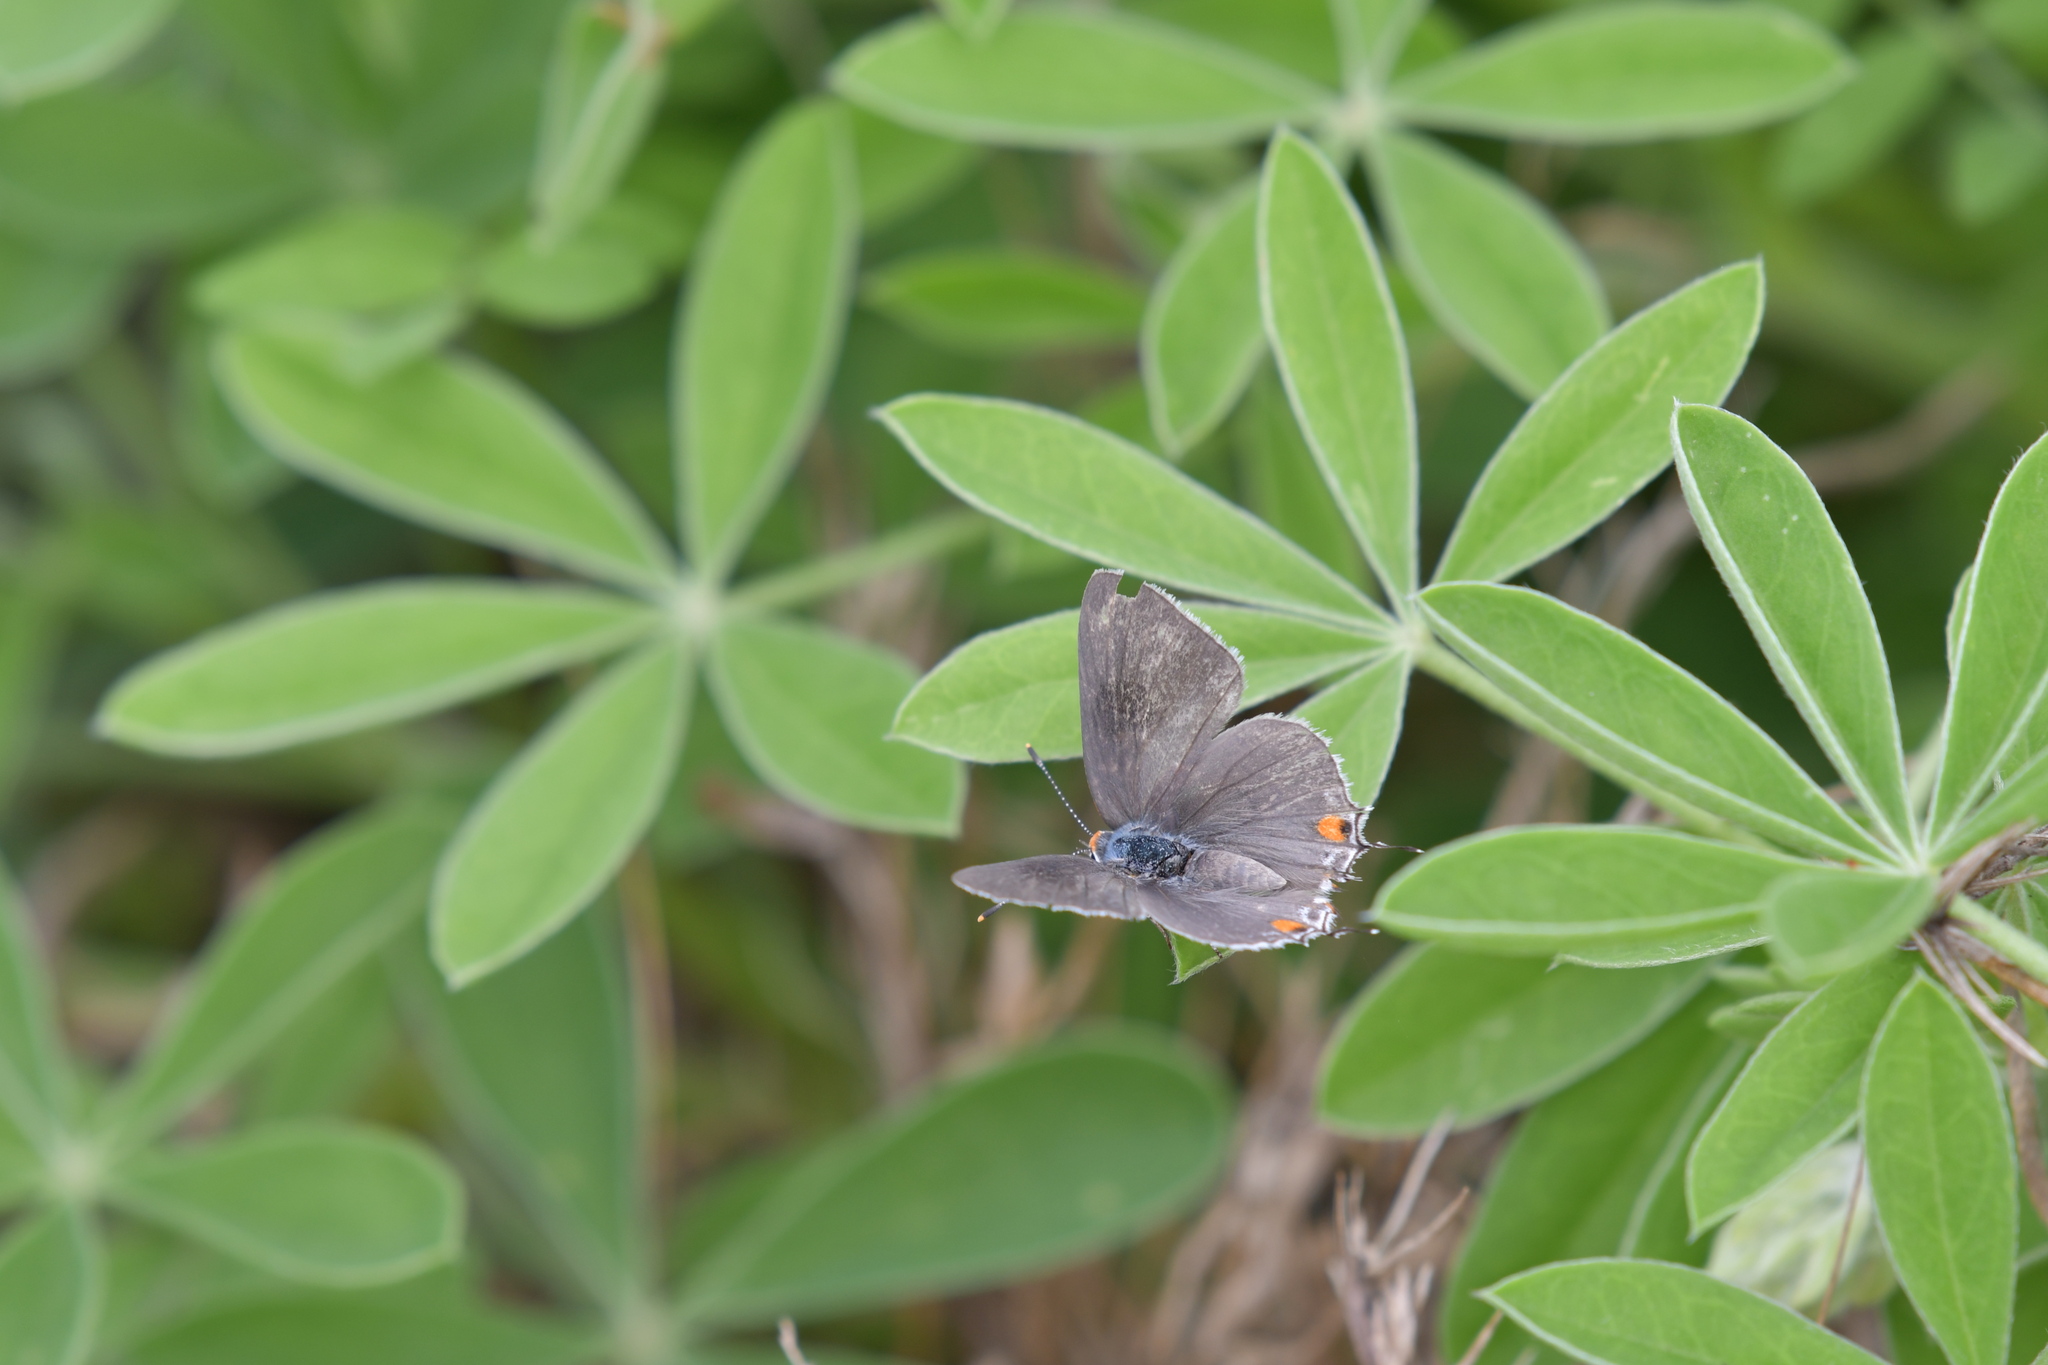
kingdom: Animalia
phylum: Arthropoda
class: Insecta
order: Lepidoptera
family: Lycaenidae
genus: Strymon
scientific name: Strymon melinus
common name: Gray hairstreak
